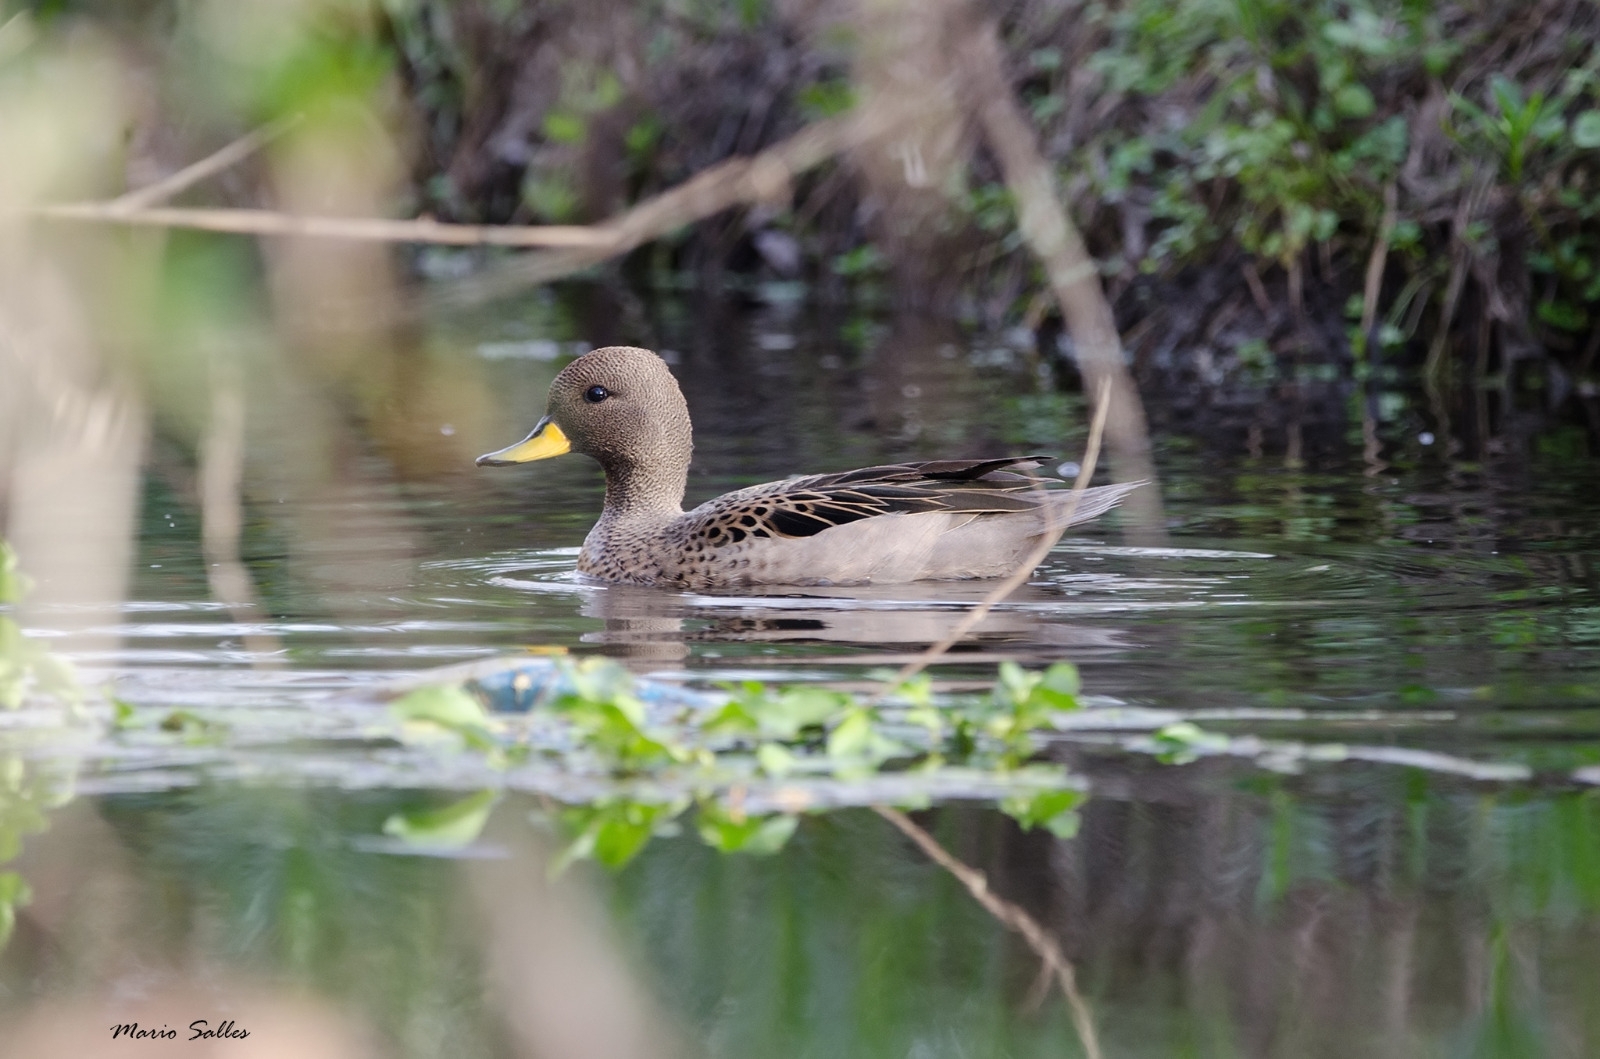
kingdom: Animalia
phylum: Chordata
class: Aves
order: Anseriformes
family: Anatidae
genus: Anas
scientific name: Anas flavirostris
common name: Yellow-billed teal
